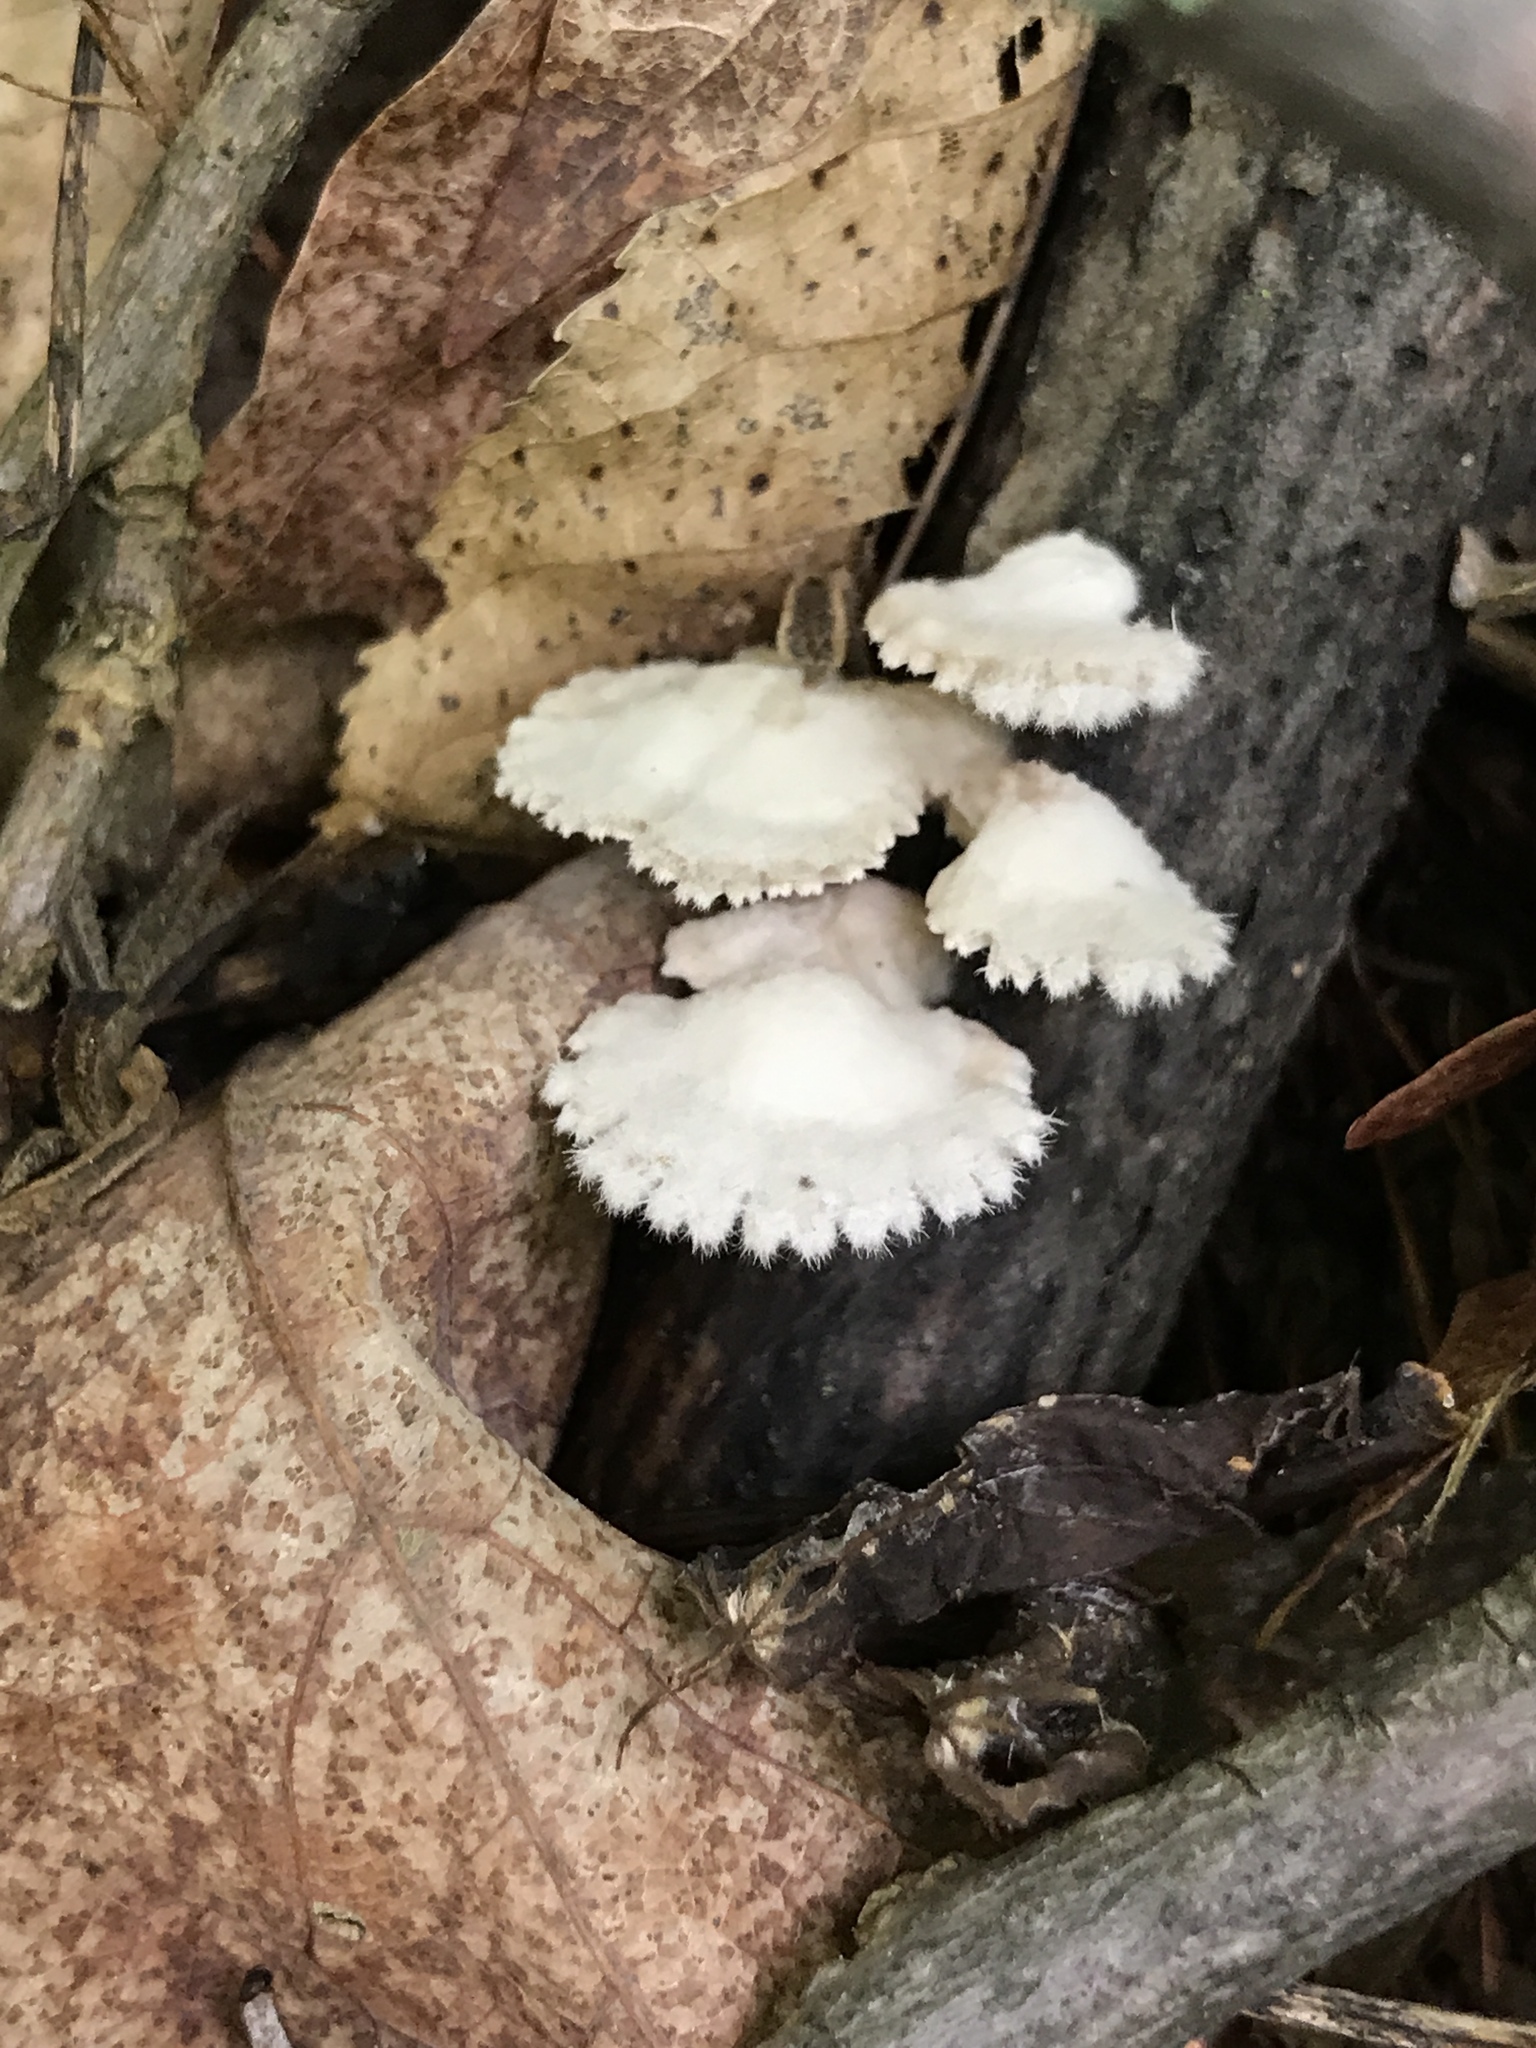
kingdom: Fungi
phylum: Basidiomycota
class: Agaricomycetes
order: Agaricales
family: Schizophyllaceae
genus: Schizophyllum
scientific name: Schizophyllum commune
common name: Common porecrust
